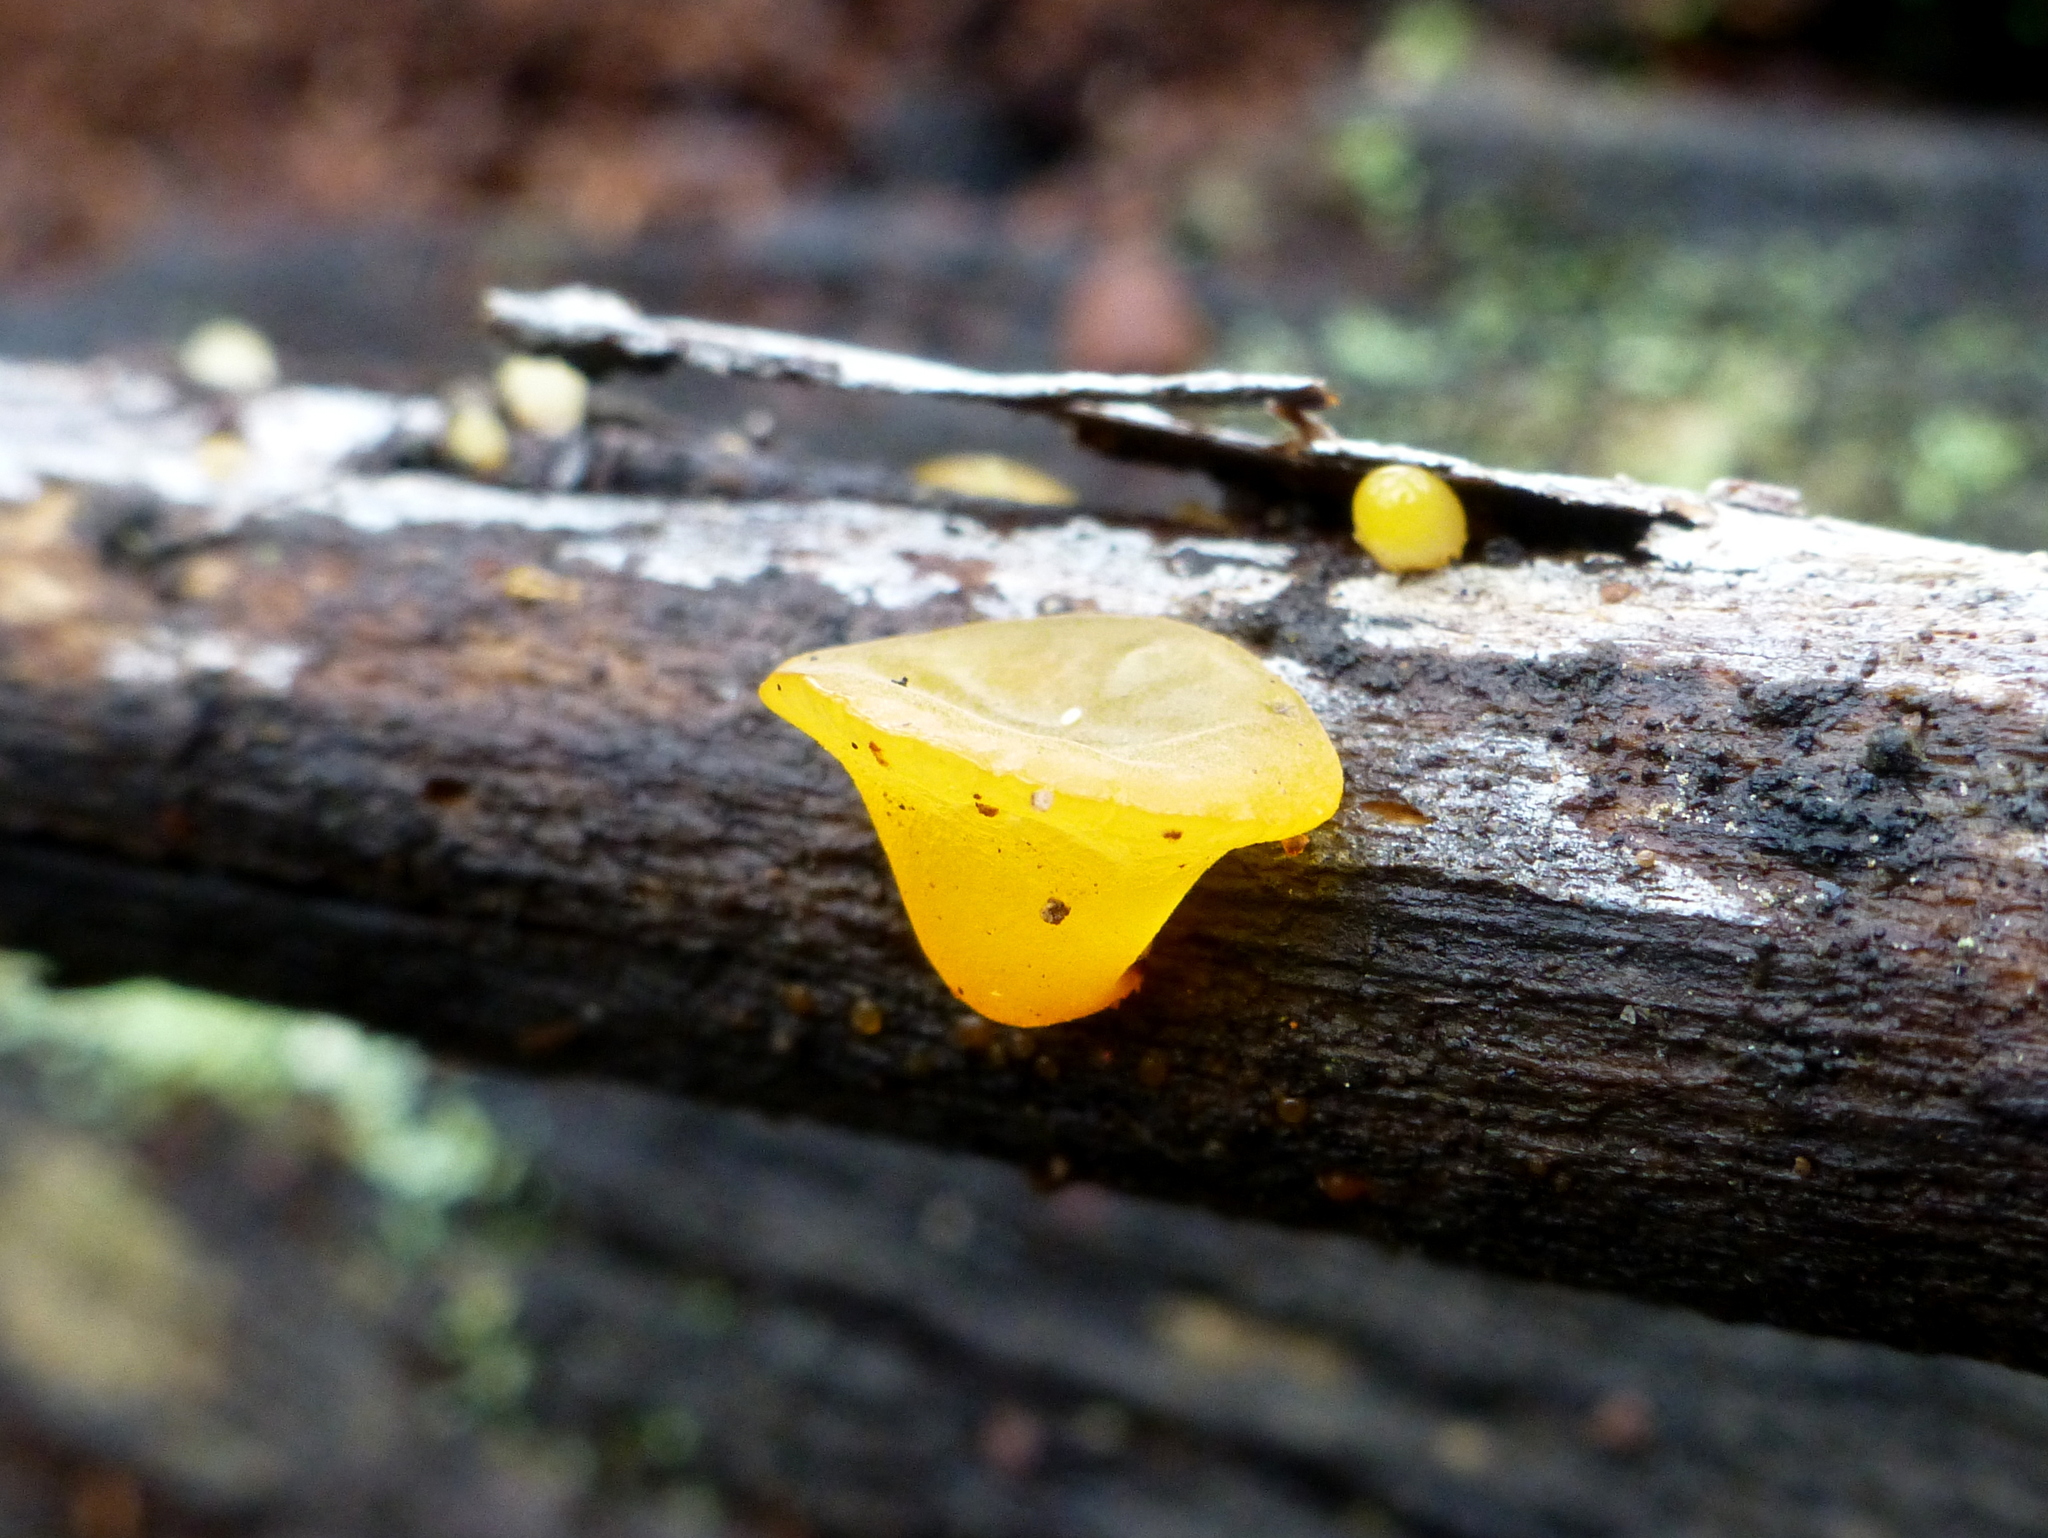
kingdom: Fungi
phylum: Basidiomycota
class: Dacrymycetes
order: Dacrymycetales
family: Dacrymycetaceae
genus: Heterotextus
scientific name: Heterotextus peziziformis
